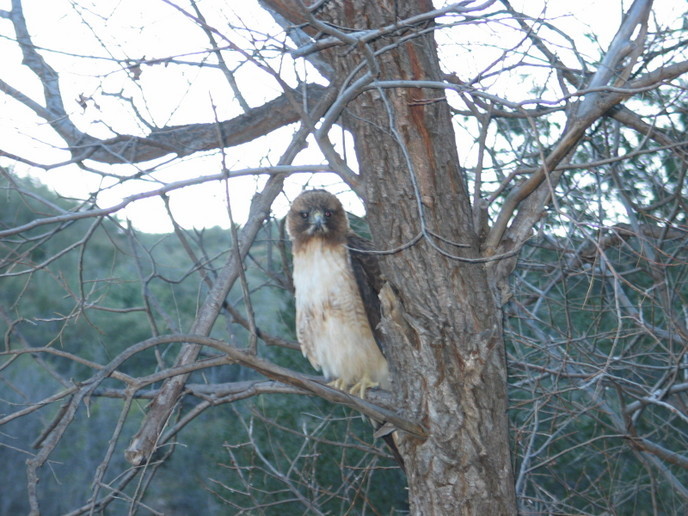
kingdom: Animalia
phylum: Chordata
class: Aves
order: Accipitriformes
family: Accipitridae
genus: Buteo
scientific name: Buteo jamaicensis
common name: Red-tailed hawk
